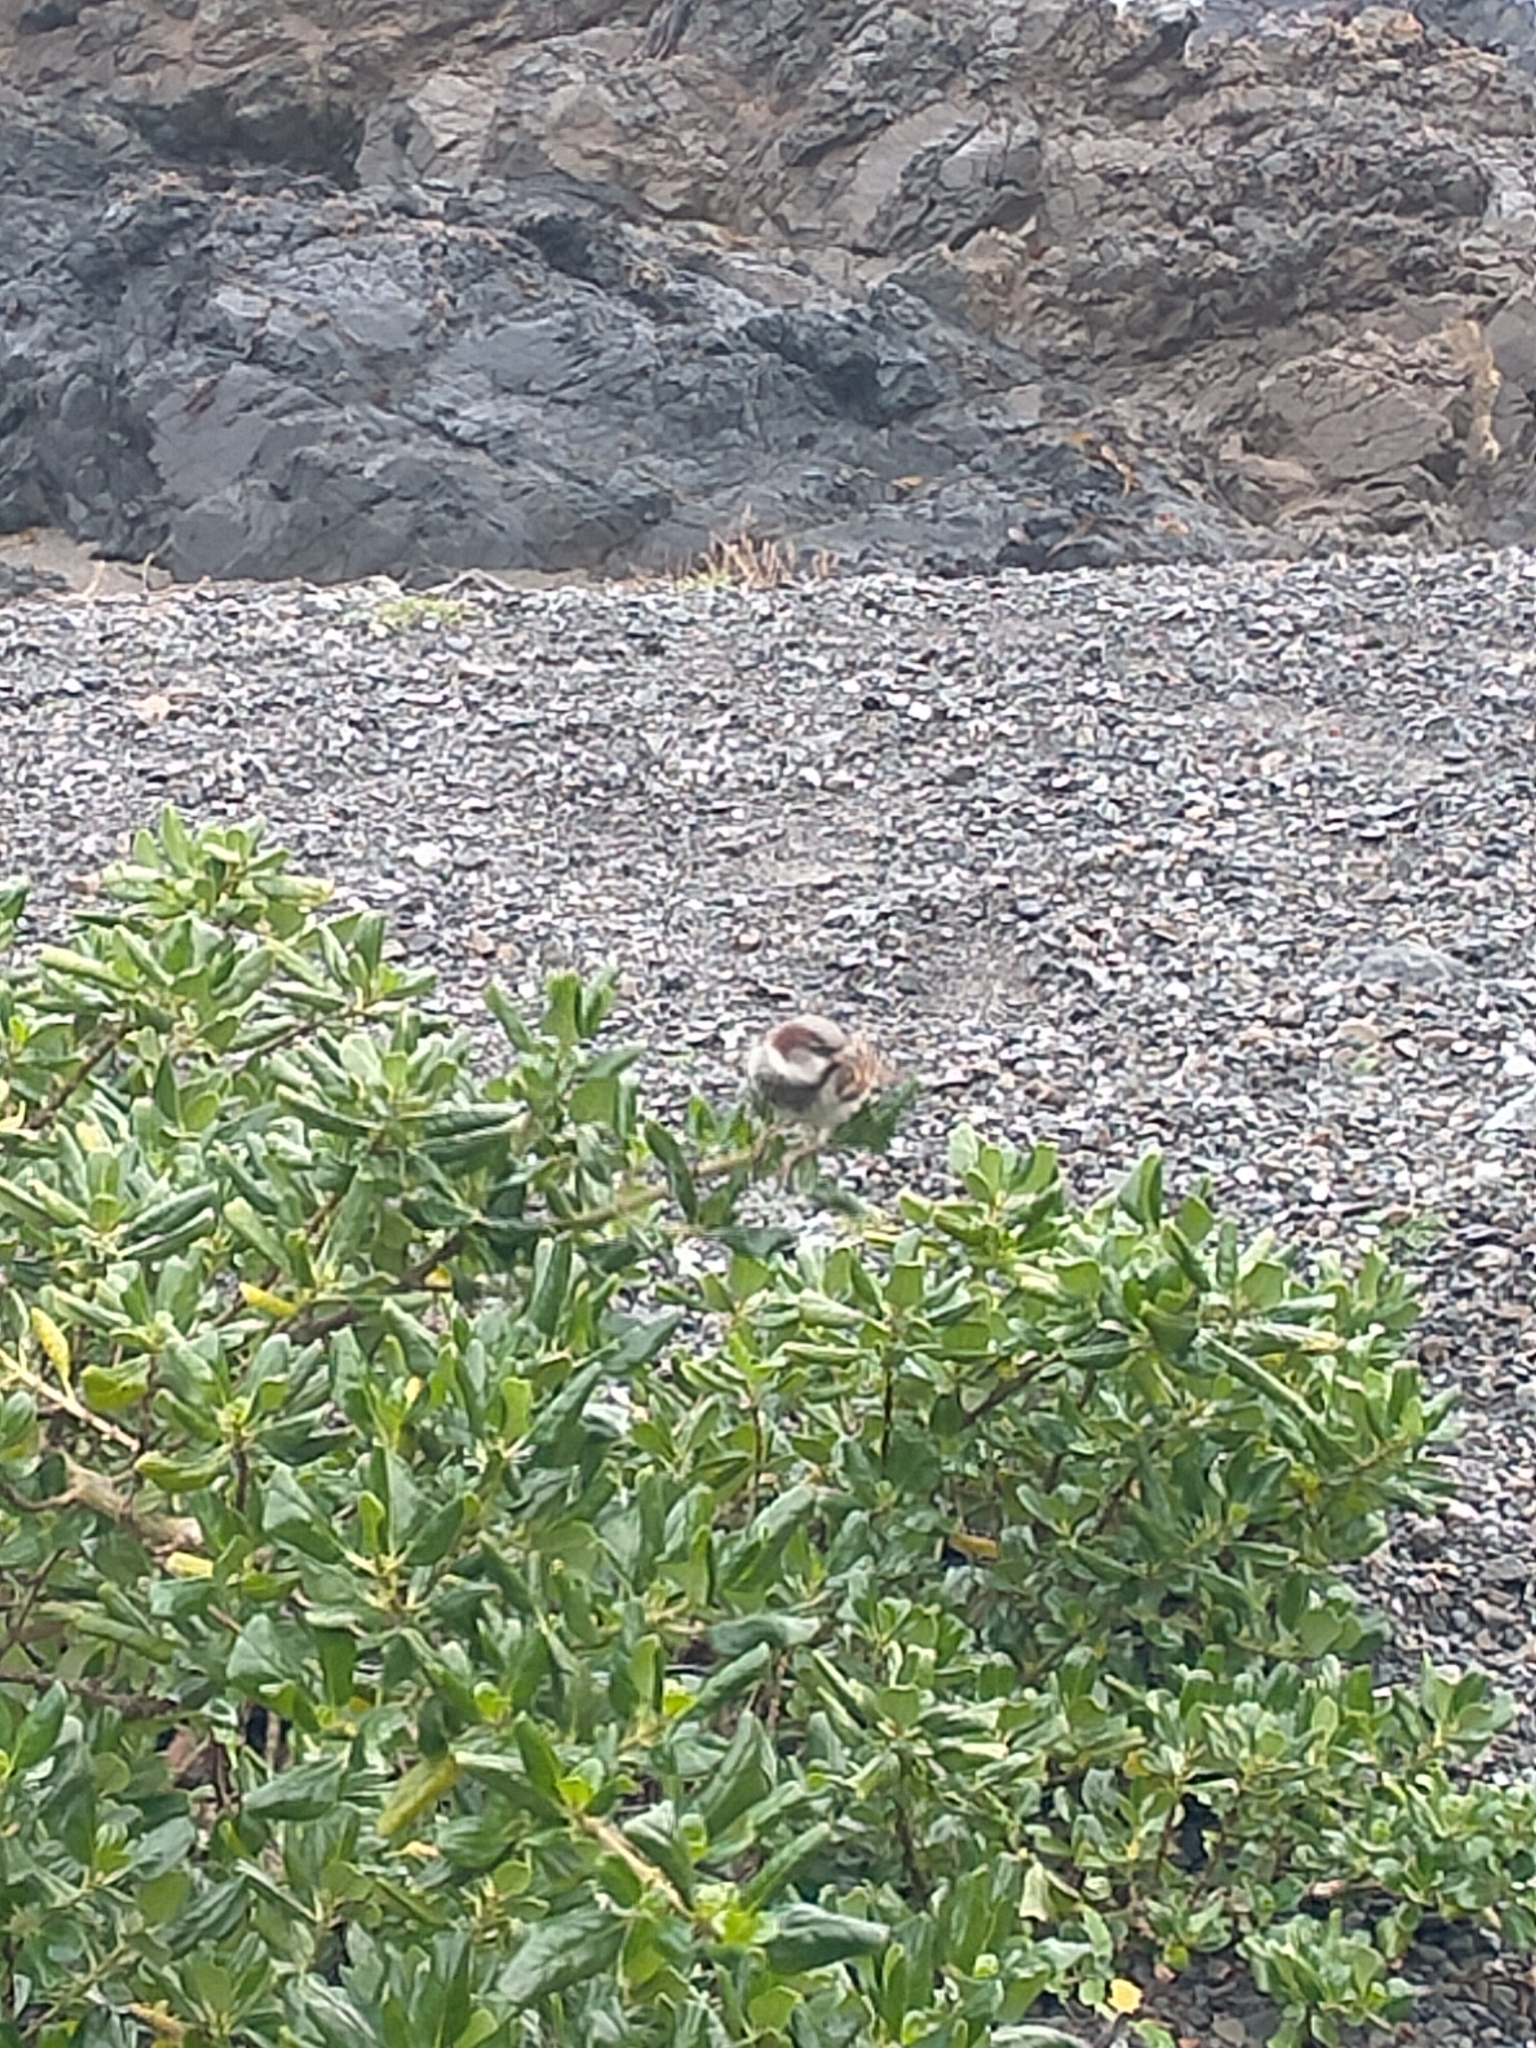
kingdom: Animalia
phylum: Chordata
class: Aves
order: Passeriformes
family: Passeridae
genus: Passer
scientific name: Passer domesticus
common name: House sparrow
